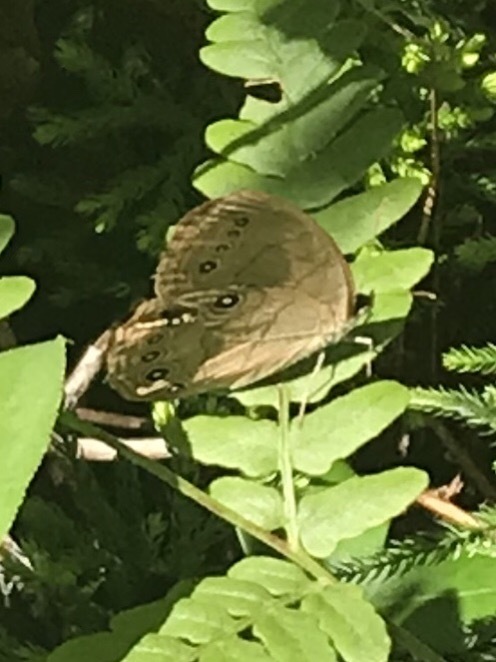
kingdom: Animalia
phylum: Arthropoda
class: Insecta
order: Lepidoptera
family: Nymphalidae
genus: Lethe
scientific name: Lethe eurydice
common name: Eyed brown
